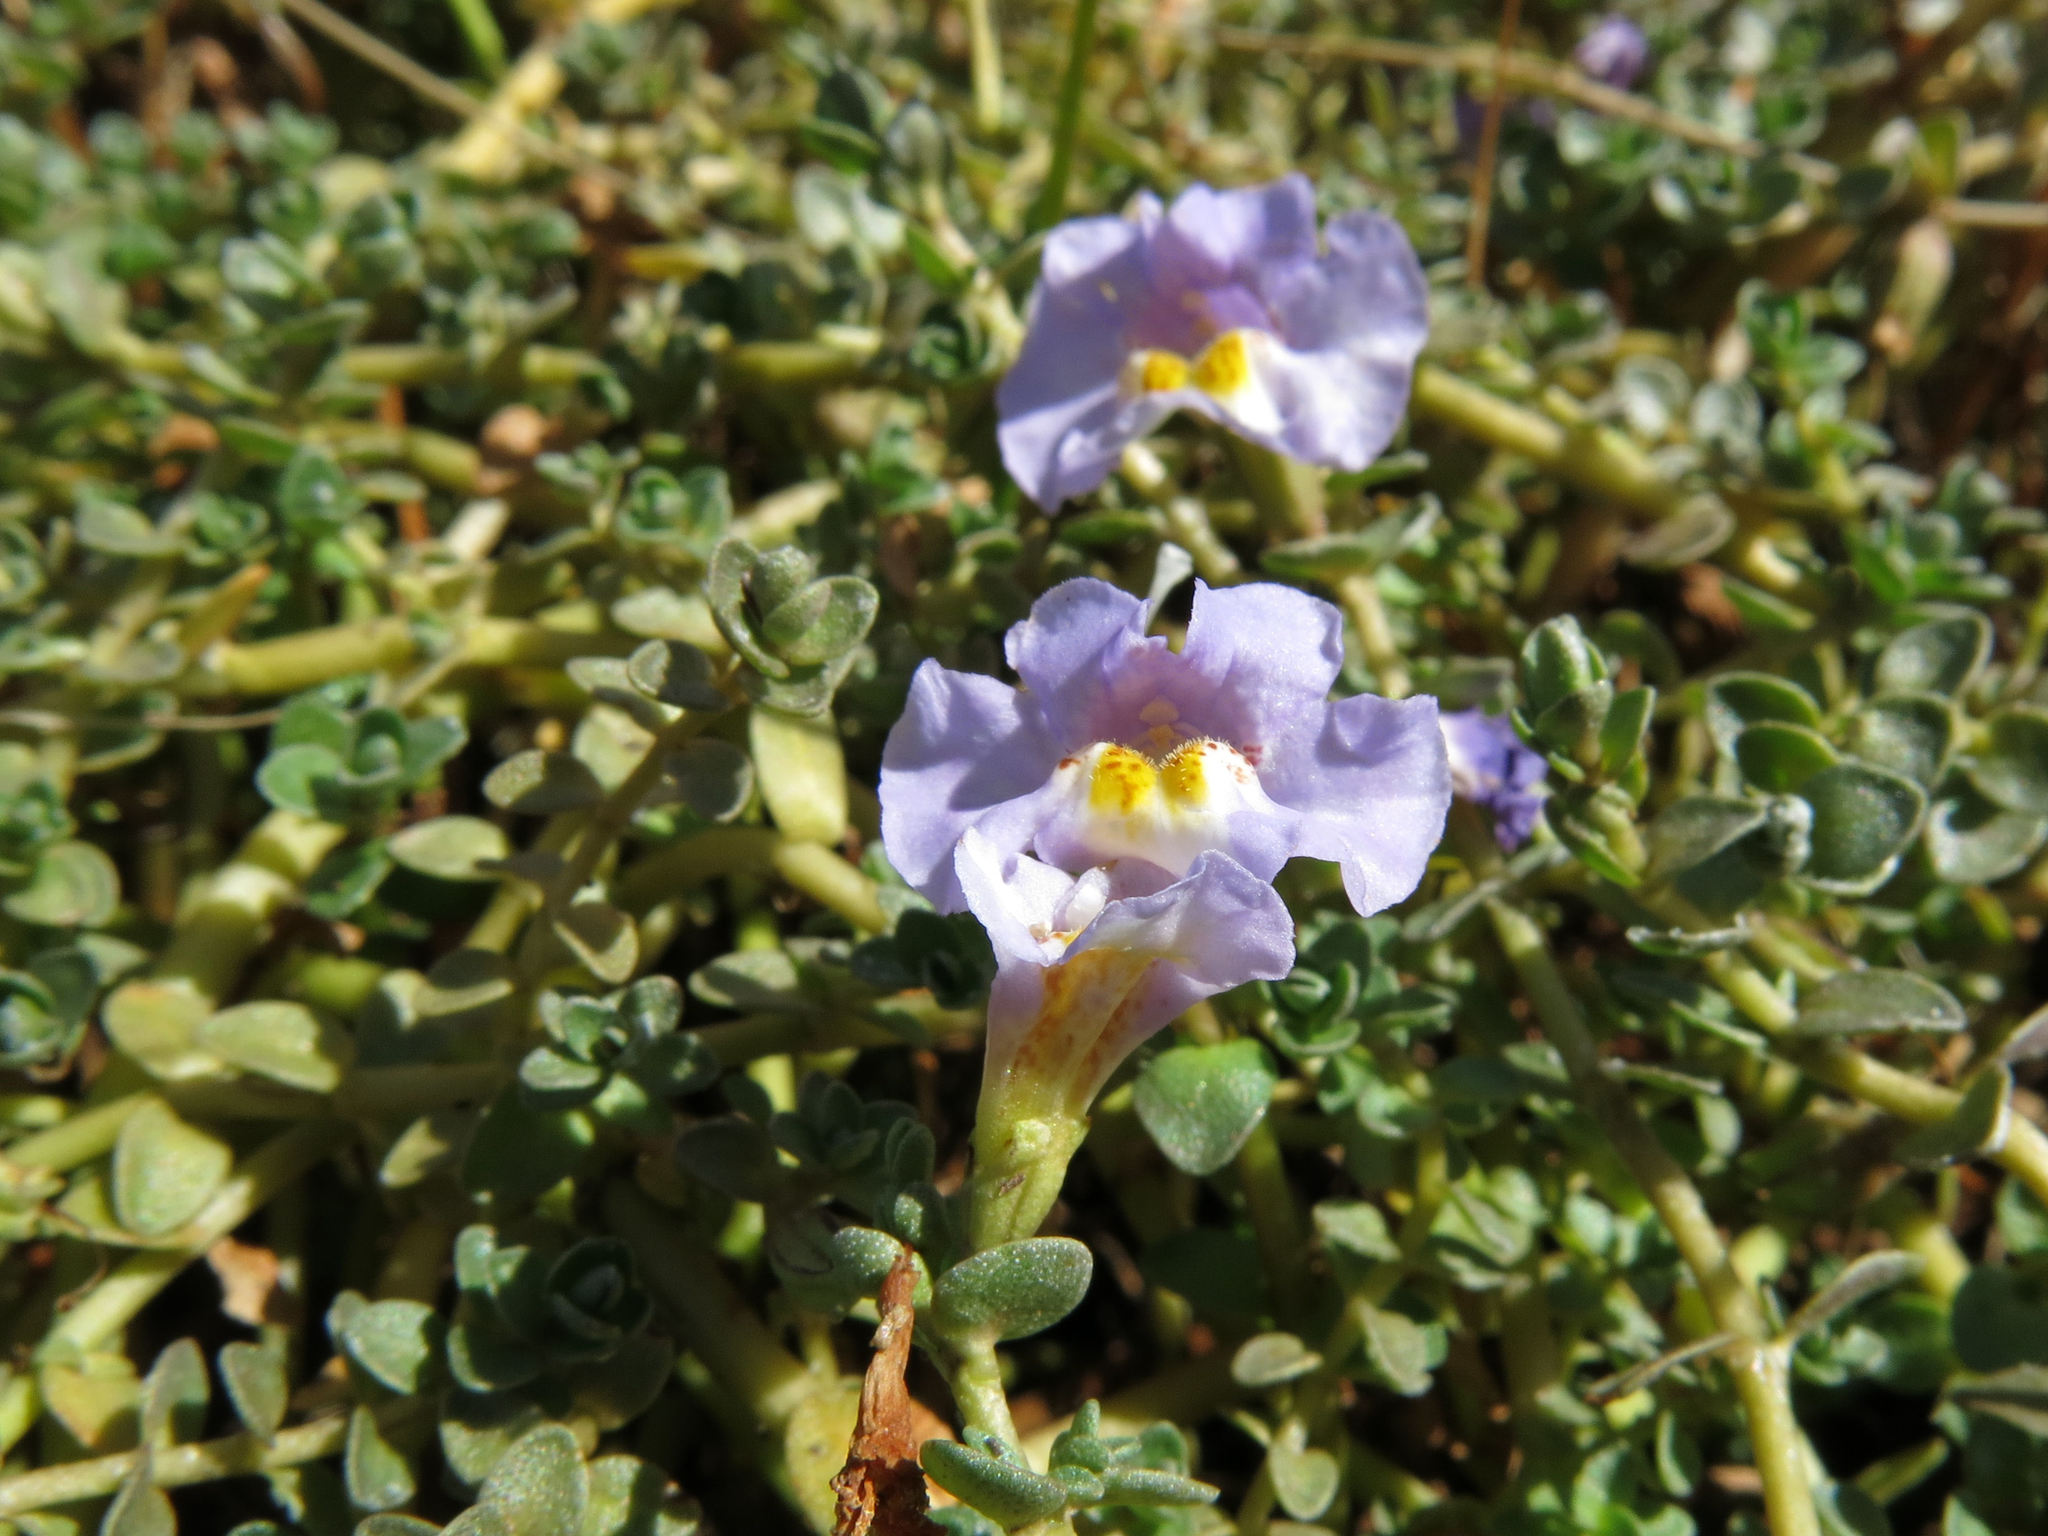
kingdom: Plantae
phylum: Tracheophyta
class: Magnoliopsida
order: Lamiales
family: Phrymaceae
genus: Thyridia
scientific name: Thyridia repens
